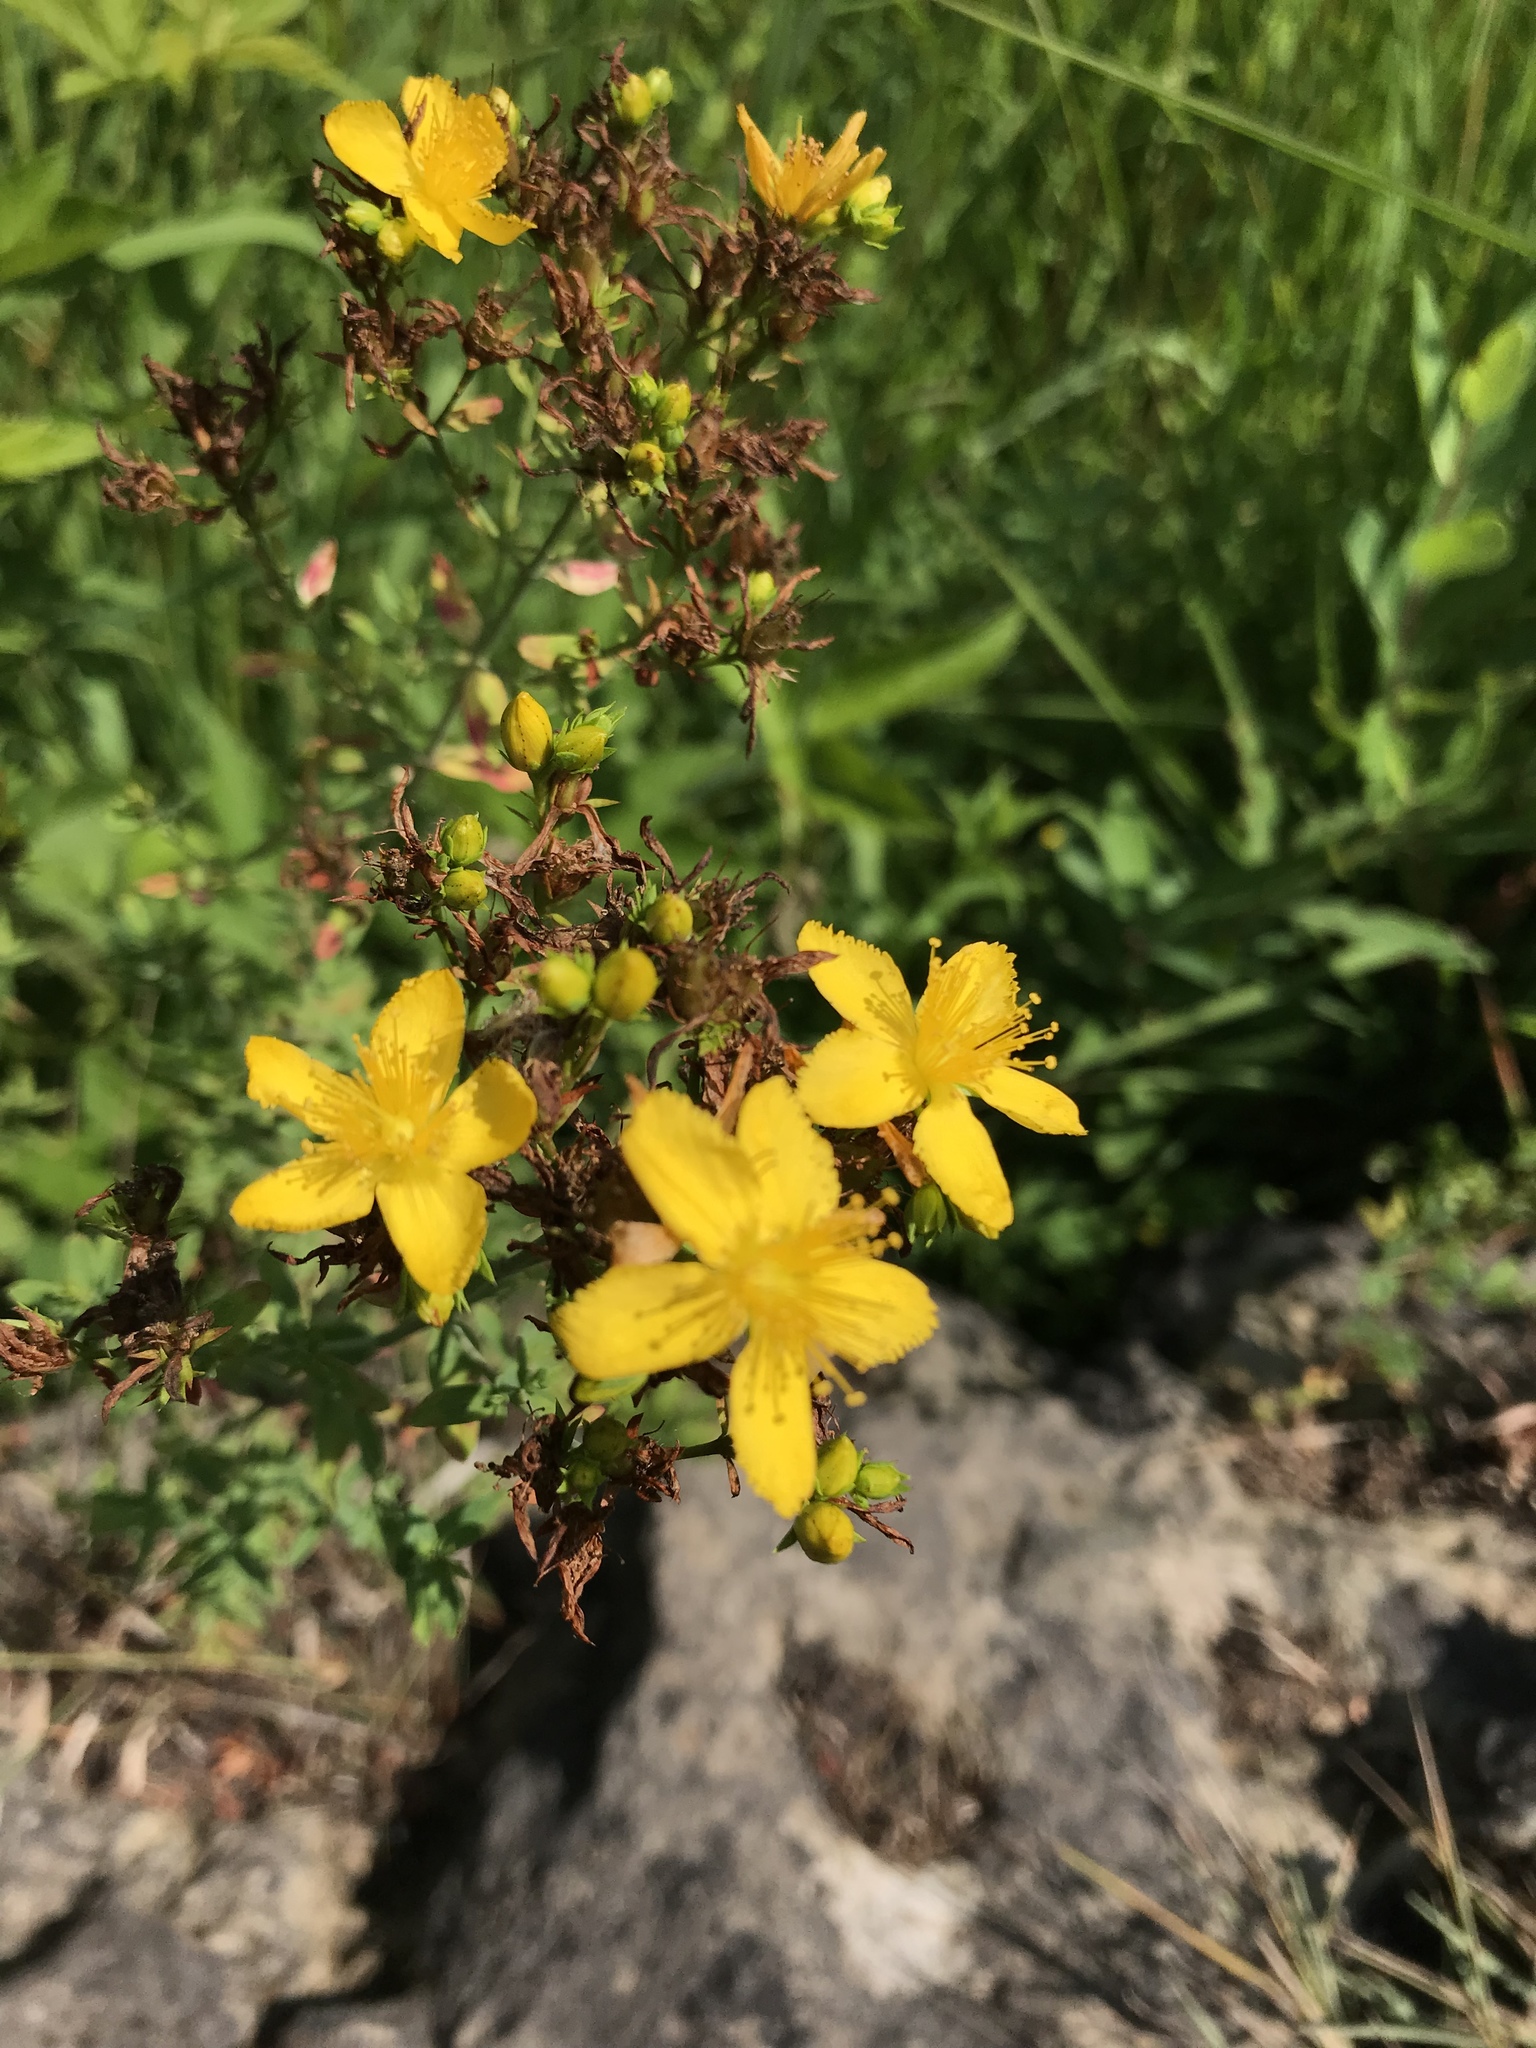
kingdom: Plantae
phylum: Tracheophyta
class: Magnoliopsida
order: Malpighiales
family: Hypericaceae
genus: Hypericum
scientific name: Hypericum perforatum
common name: Common st. johnswort
